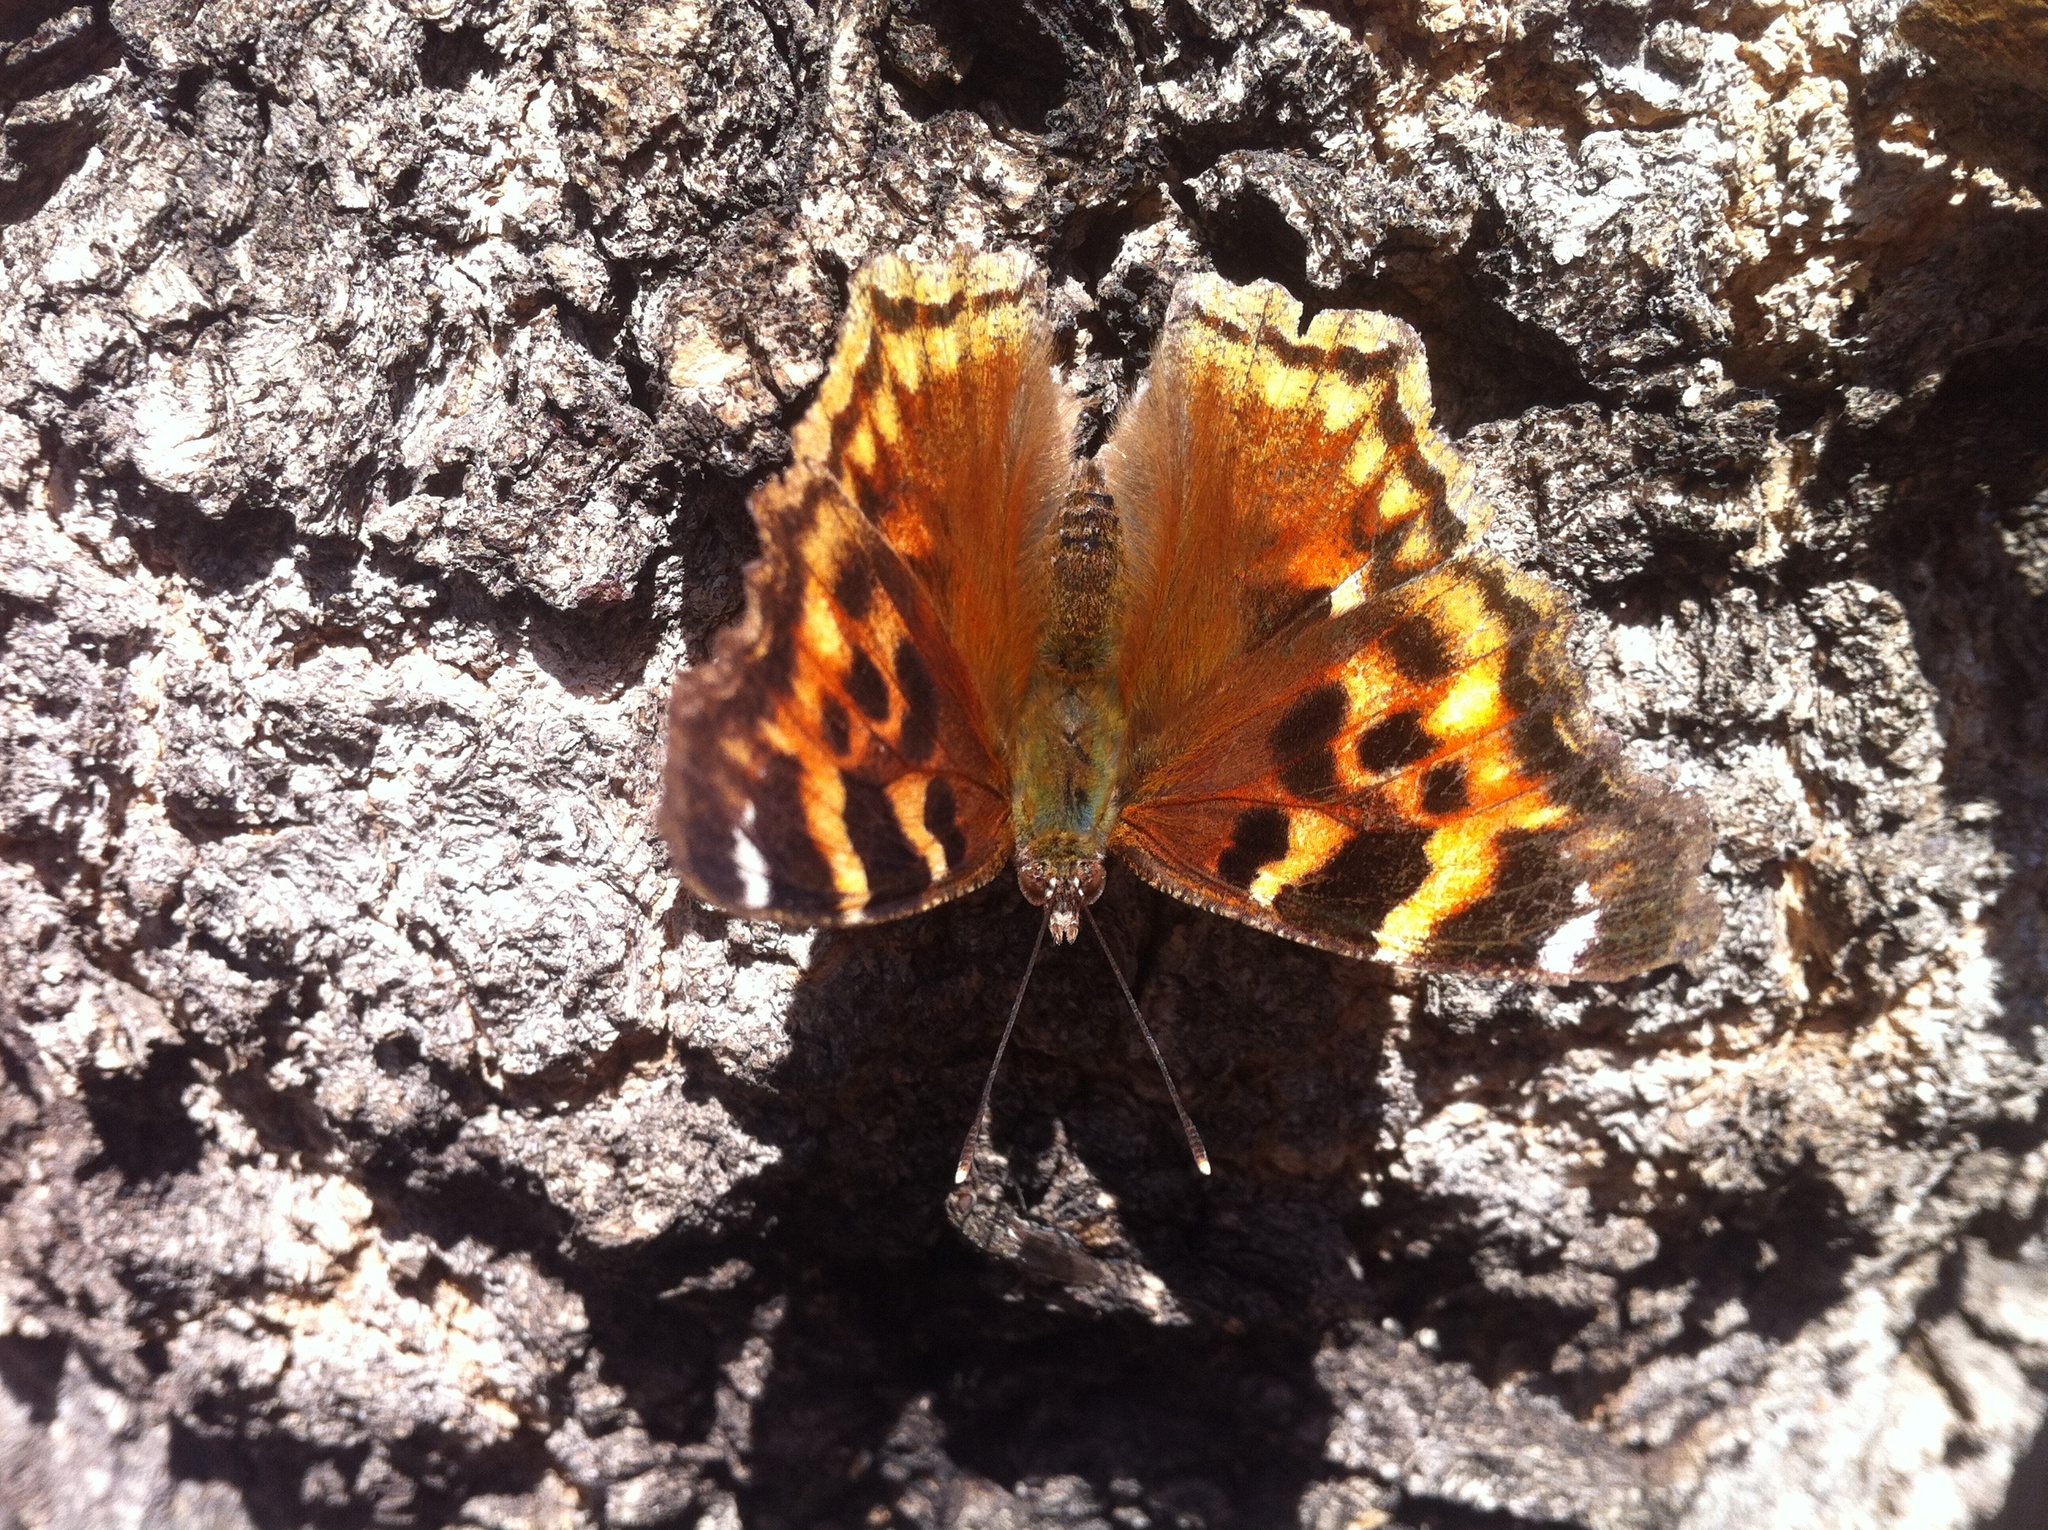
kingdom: Animalia
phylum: Arthropoda
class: Insecta
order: Lepidoptera
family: Nymphalidae
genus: Polygonia
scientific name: Polygonia vaualbum
